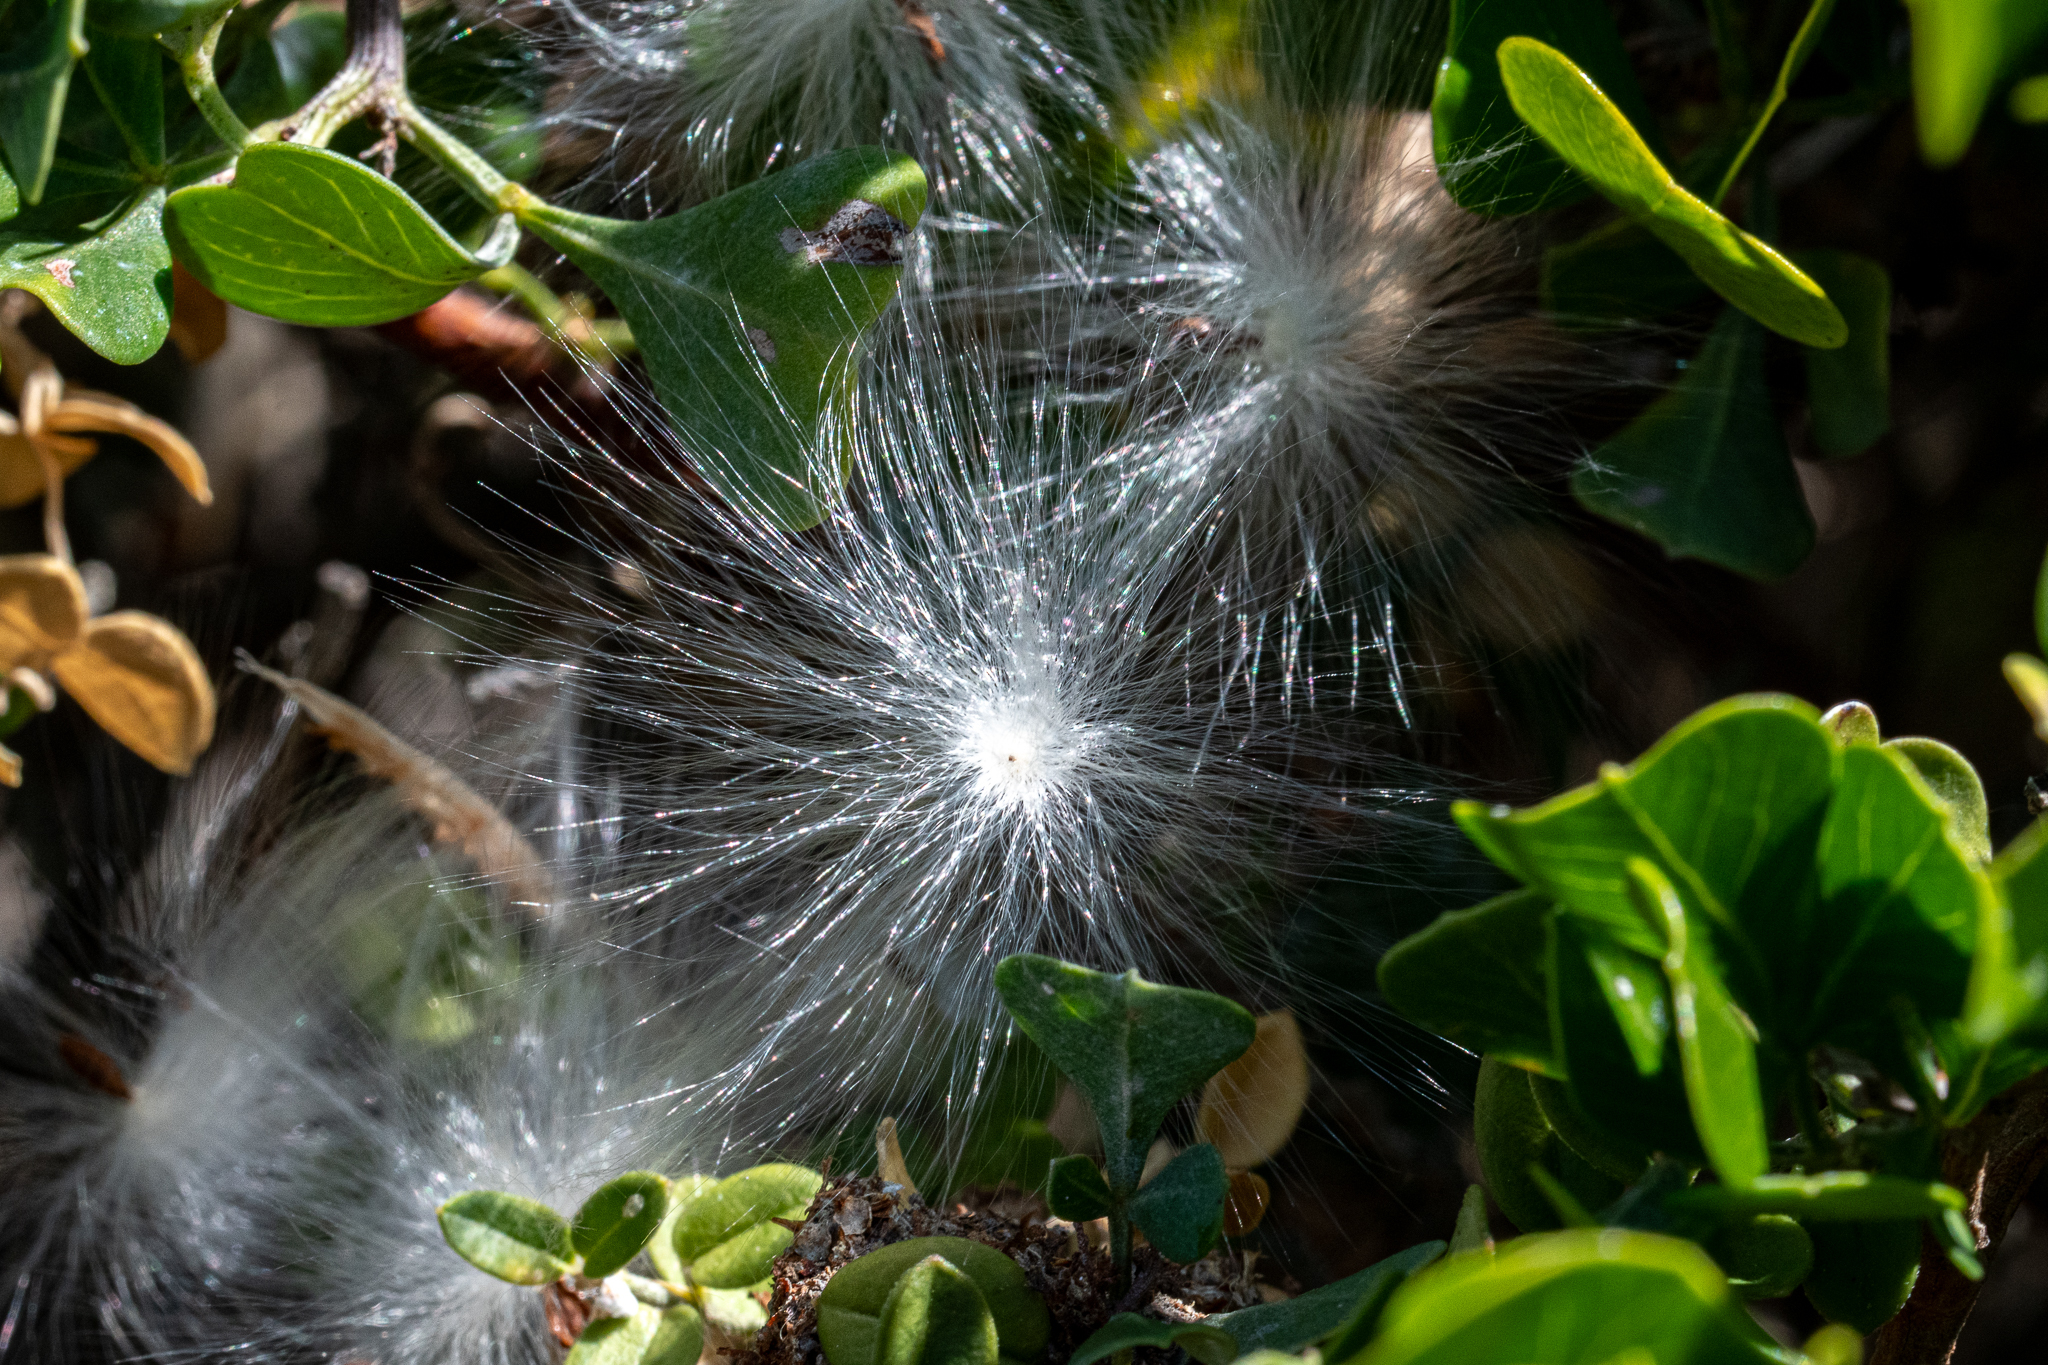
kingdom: Plantae
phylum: Tracheophyta
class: Magnoliopsida
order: Gentianales
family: Apocynaceae
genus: Cynanchum
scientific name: Cynanchum obtusifolium
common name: Monkey-rope
